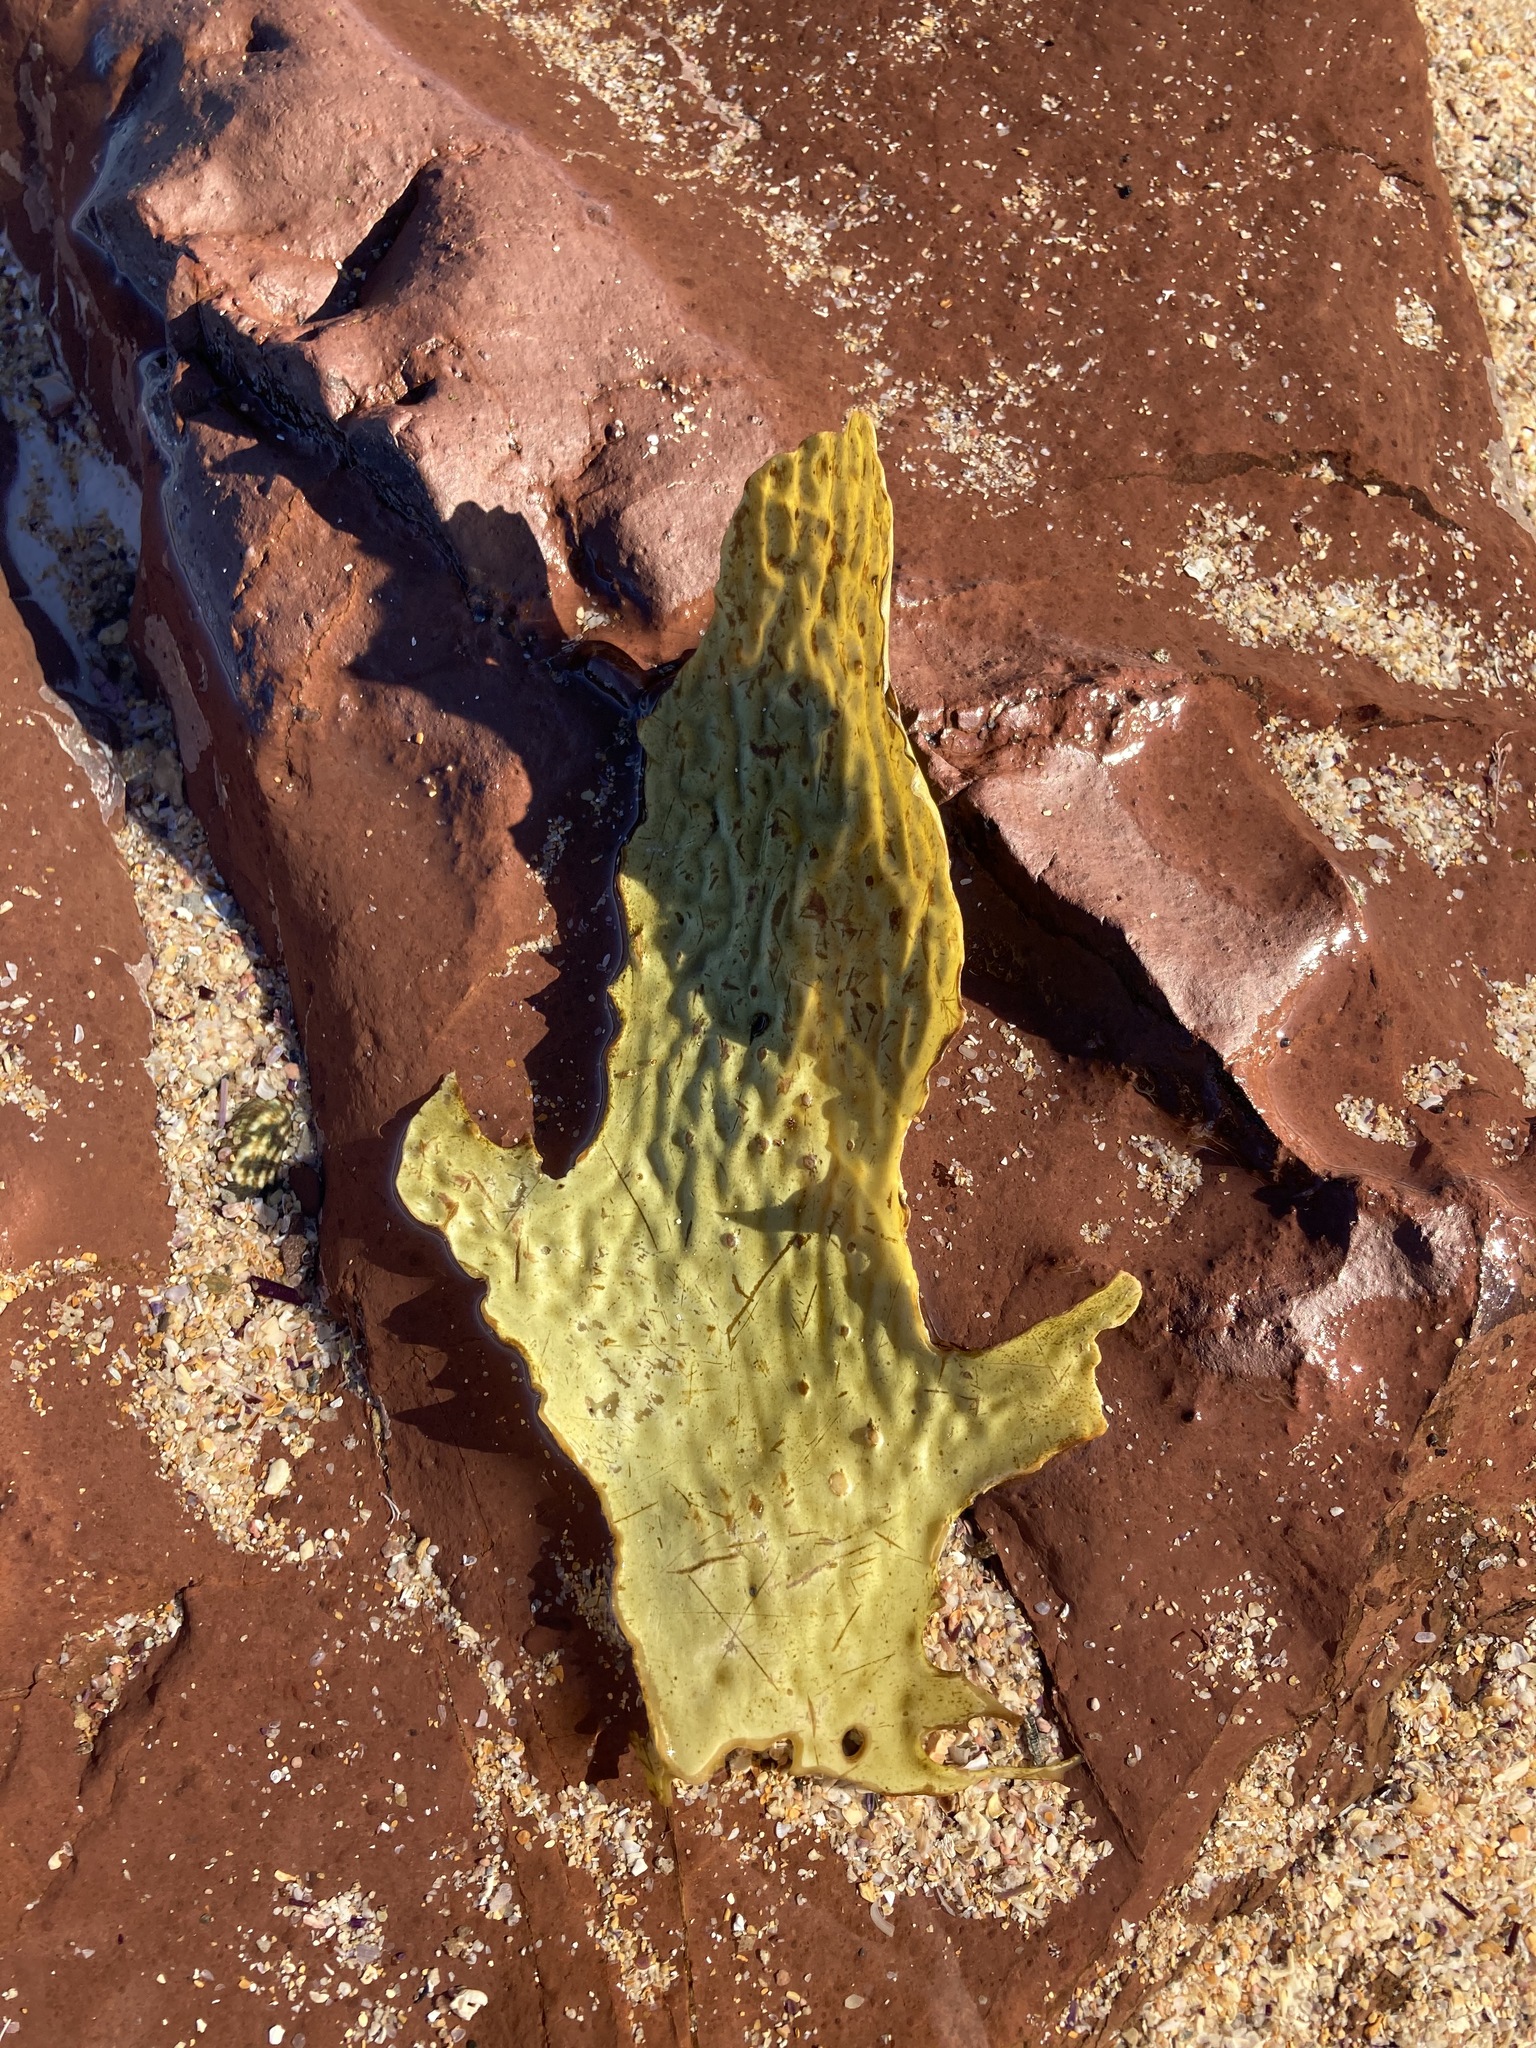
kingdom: Chromista
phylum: Ochrophyta
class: Phaeophyceae
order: Laminariales
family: Lessoniaceae
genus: Ecklonia
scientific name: Ecklonia radiata
